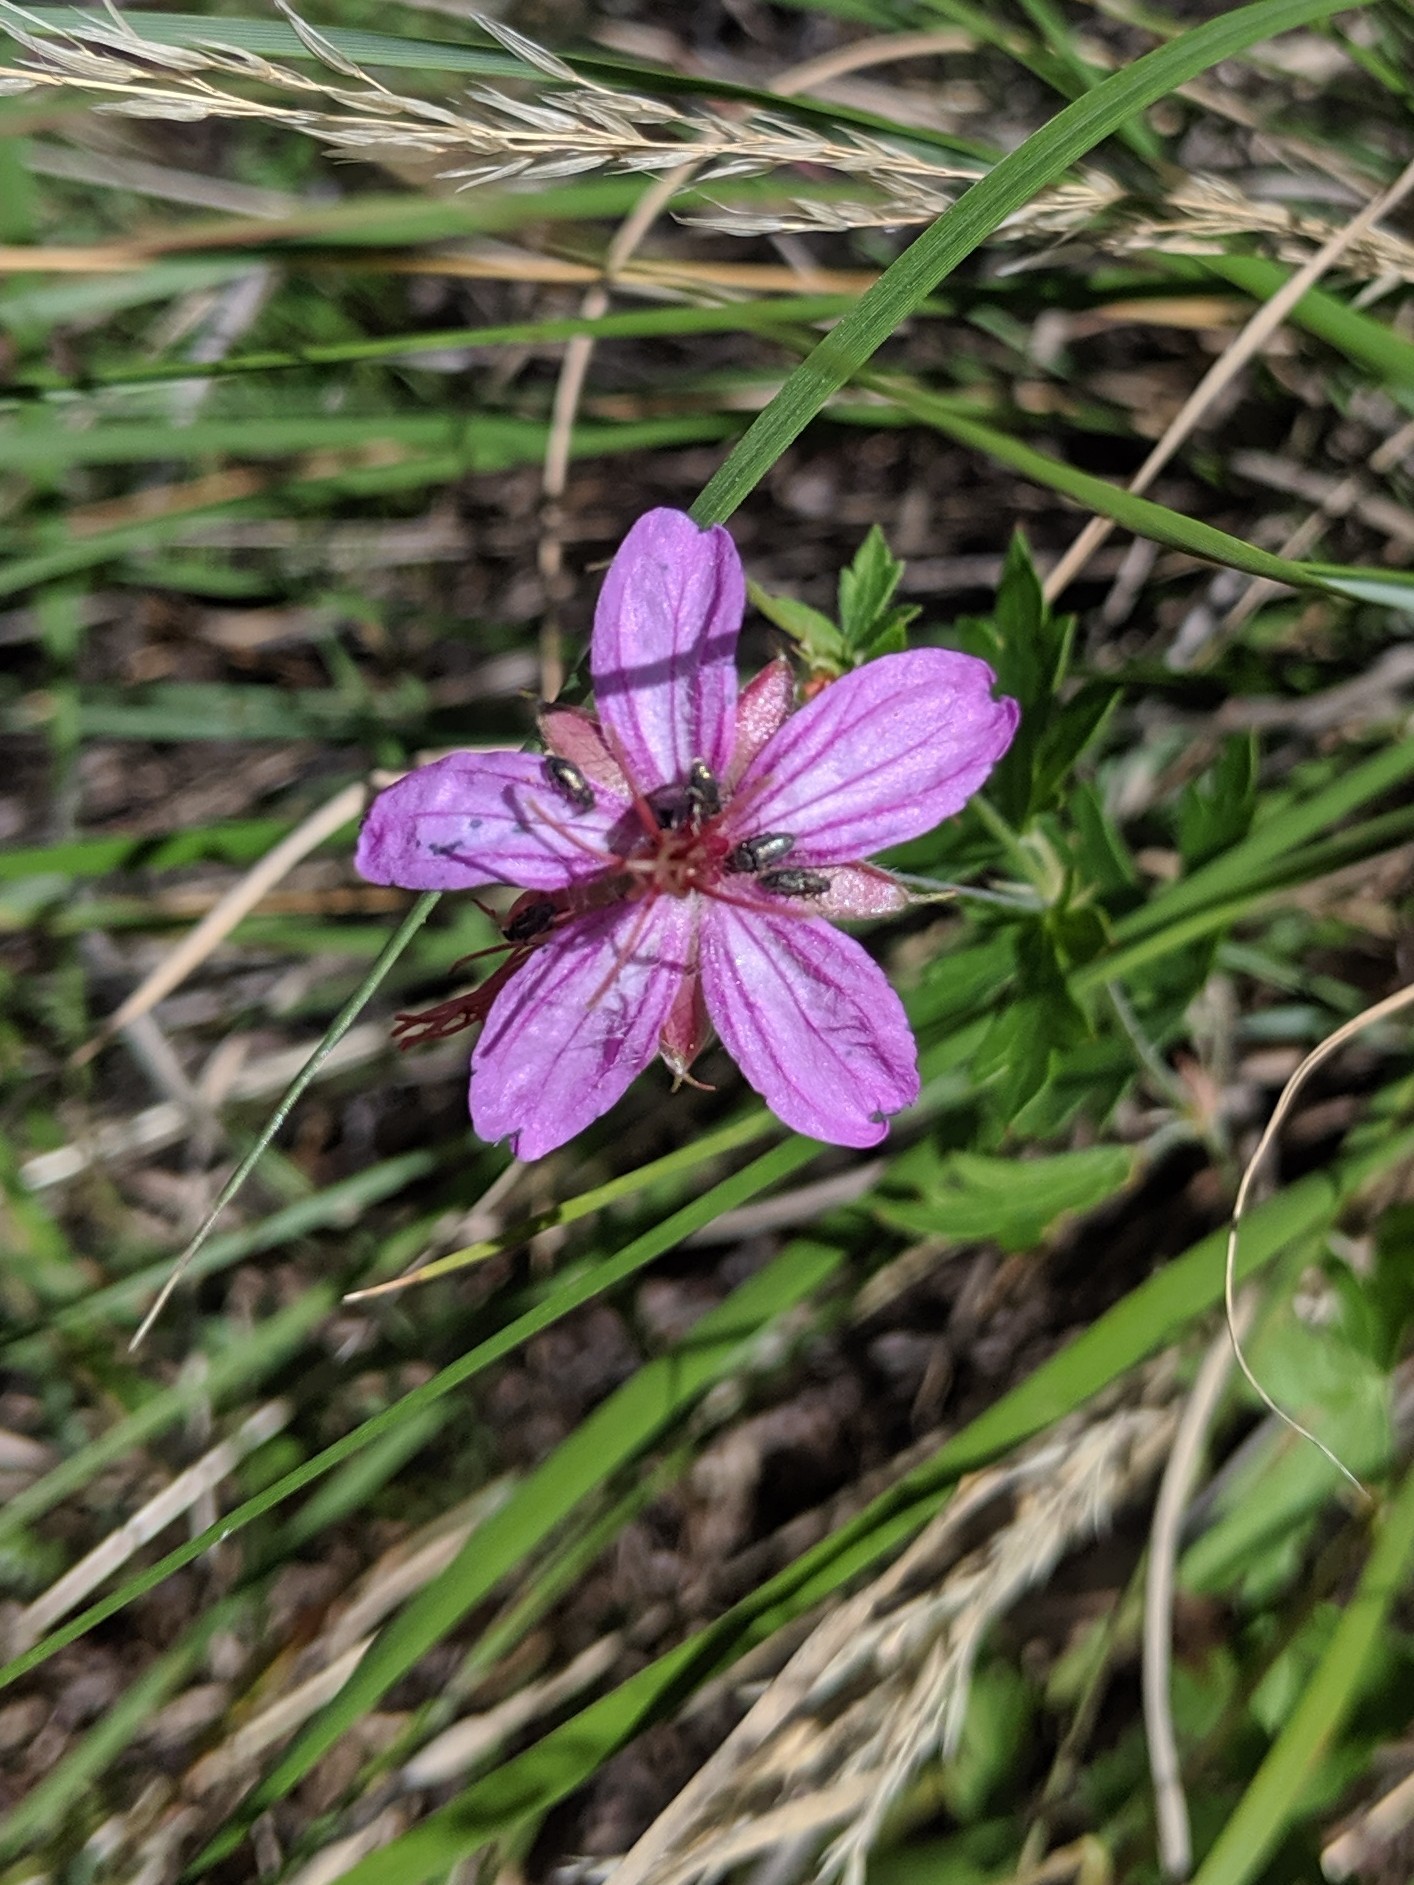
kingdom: Plantae
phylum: Tracheophyta
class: Magnoliopsida
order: Geraniales
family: Geraniaceae
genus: Geranium
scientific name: Geranium caespitosum
